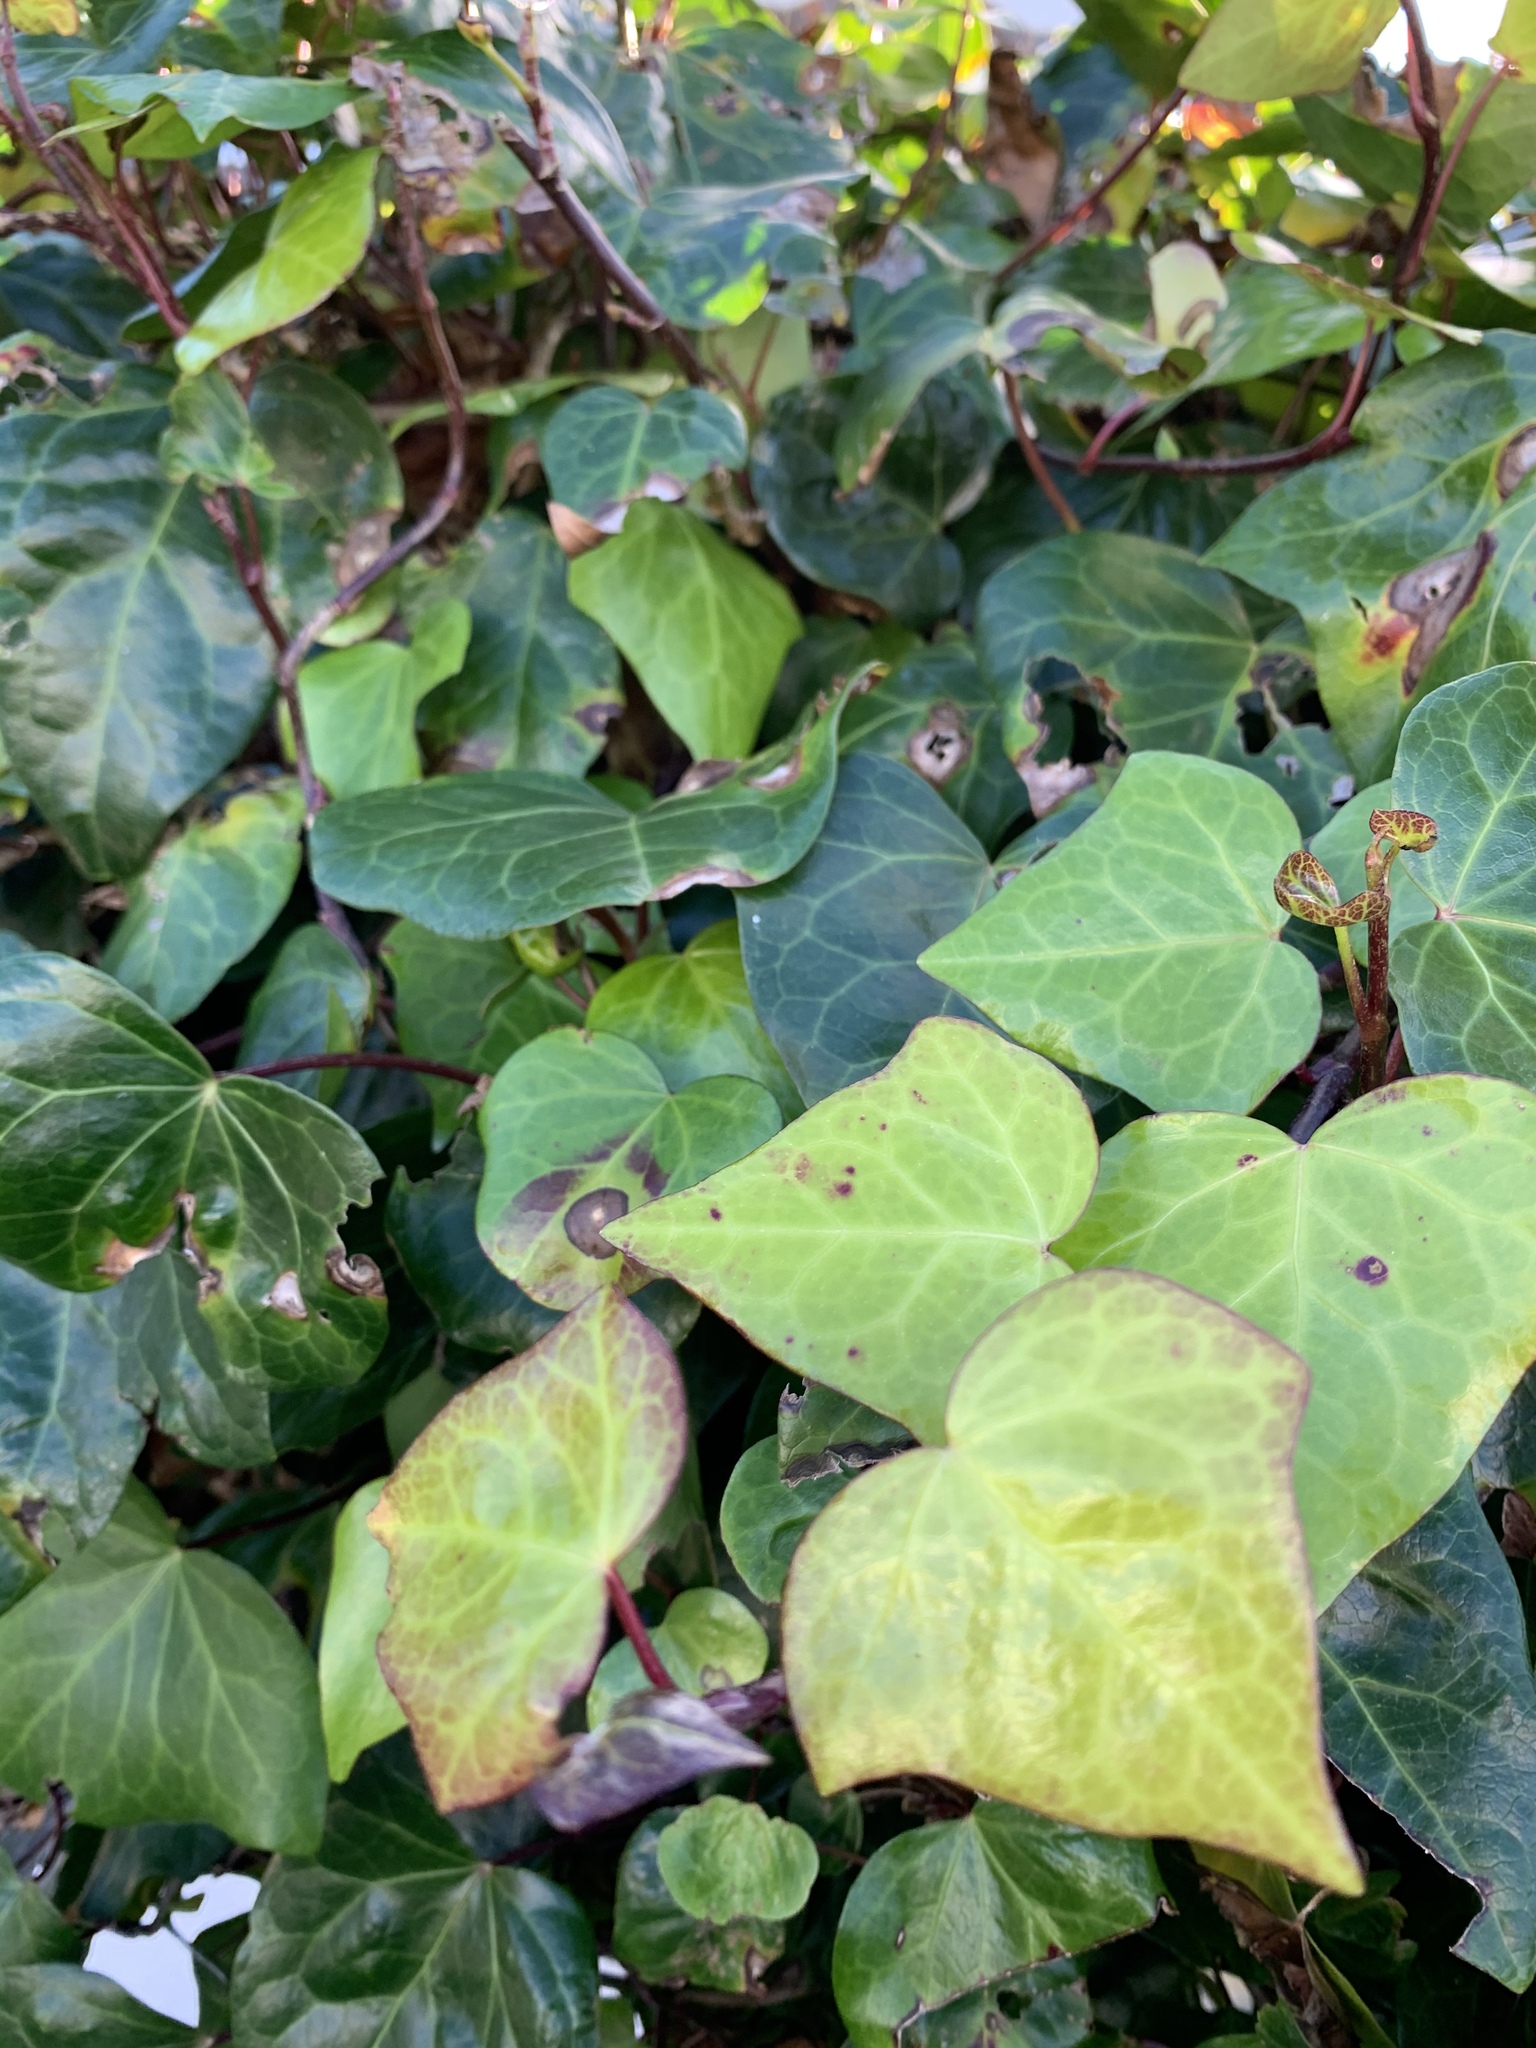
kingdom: Plantae
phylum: Tracheophyta
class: Magnoliopsida
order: Apiales
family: Araliaceae
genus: Hedera
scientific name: Hedera helix
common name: Ivy
